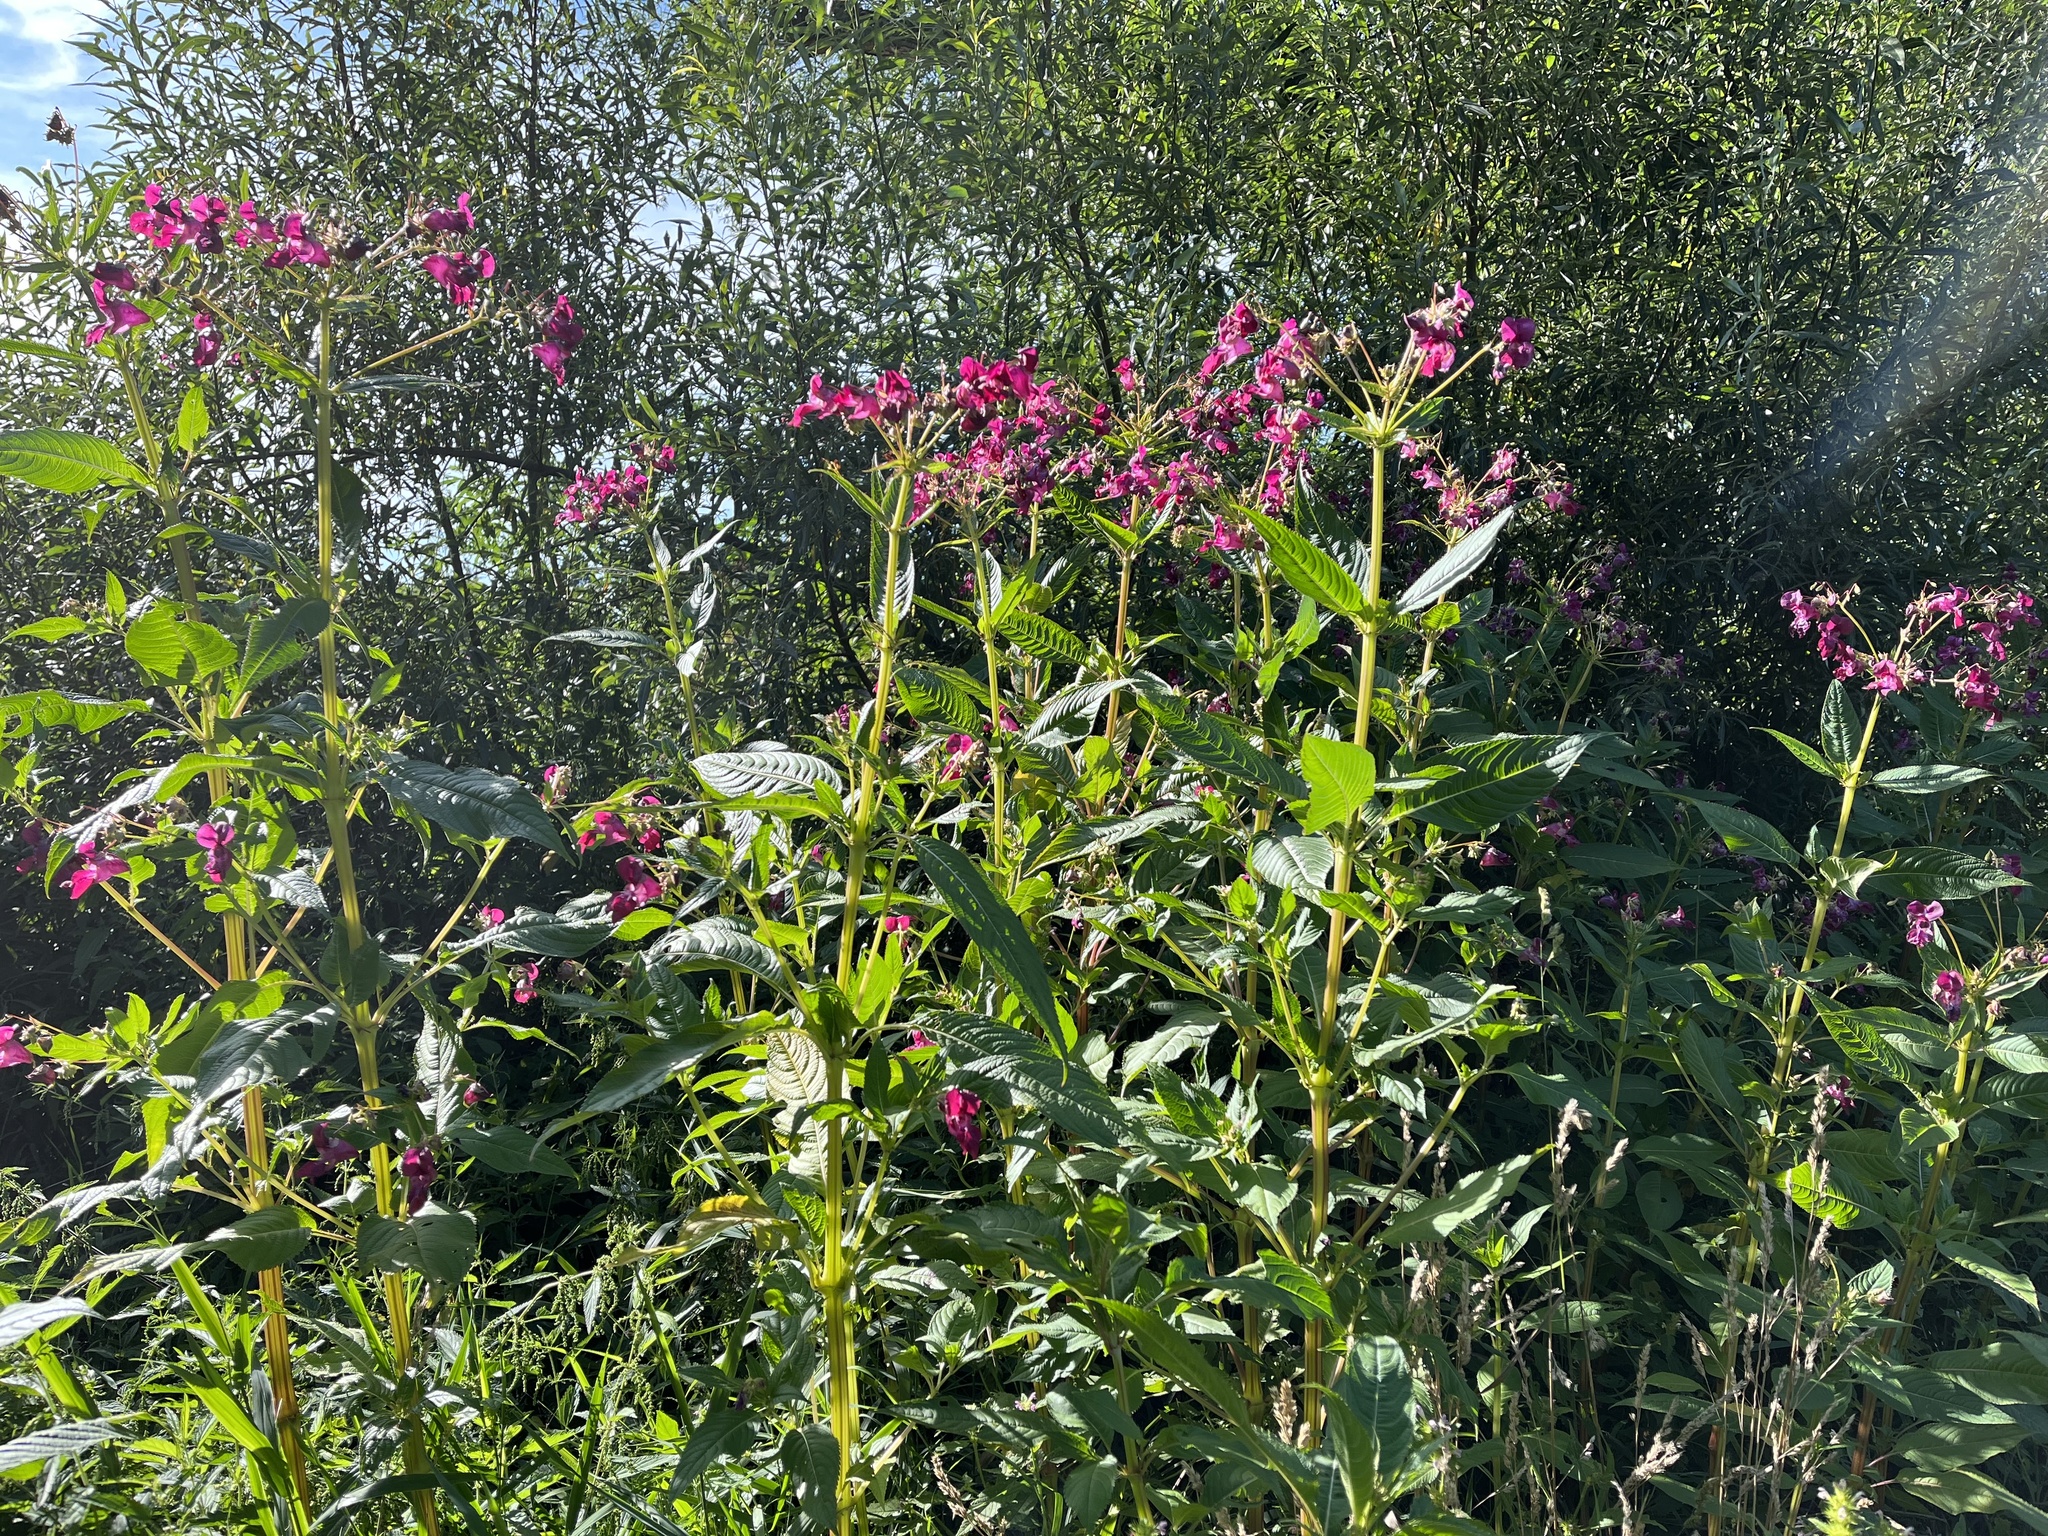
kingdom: Plantae
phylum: Tracheophyta
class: Magnoliopsida
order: Ericales
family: Balsaminaceae
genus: Impatiens
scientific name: Impatiens glandulifera
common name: Himalayan balsam
